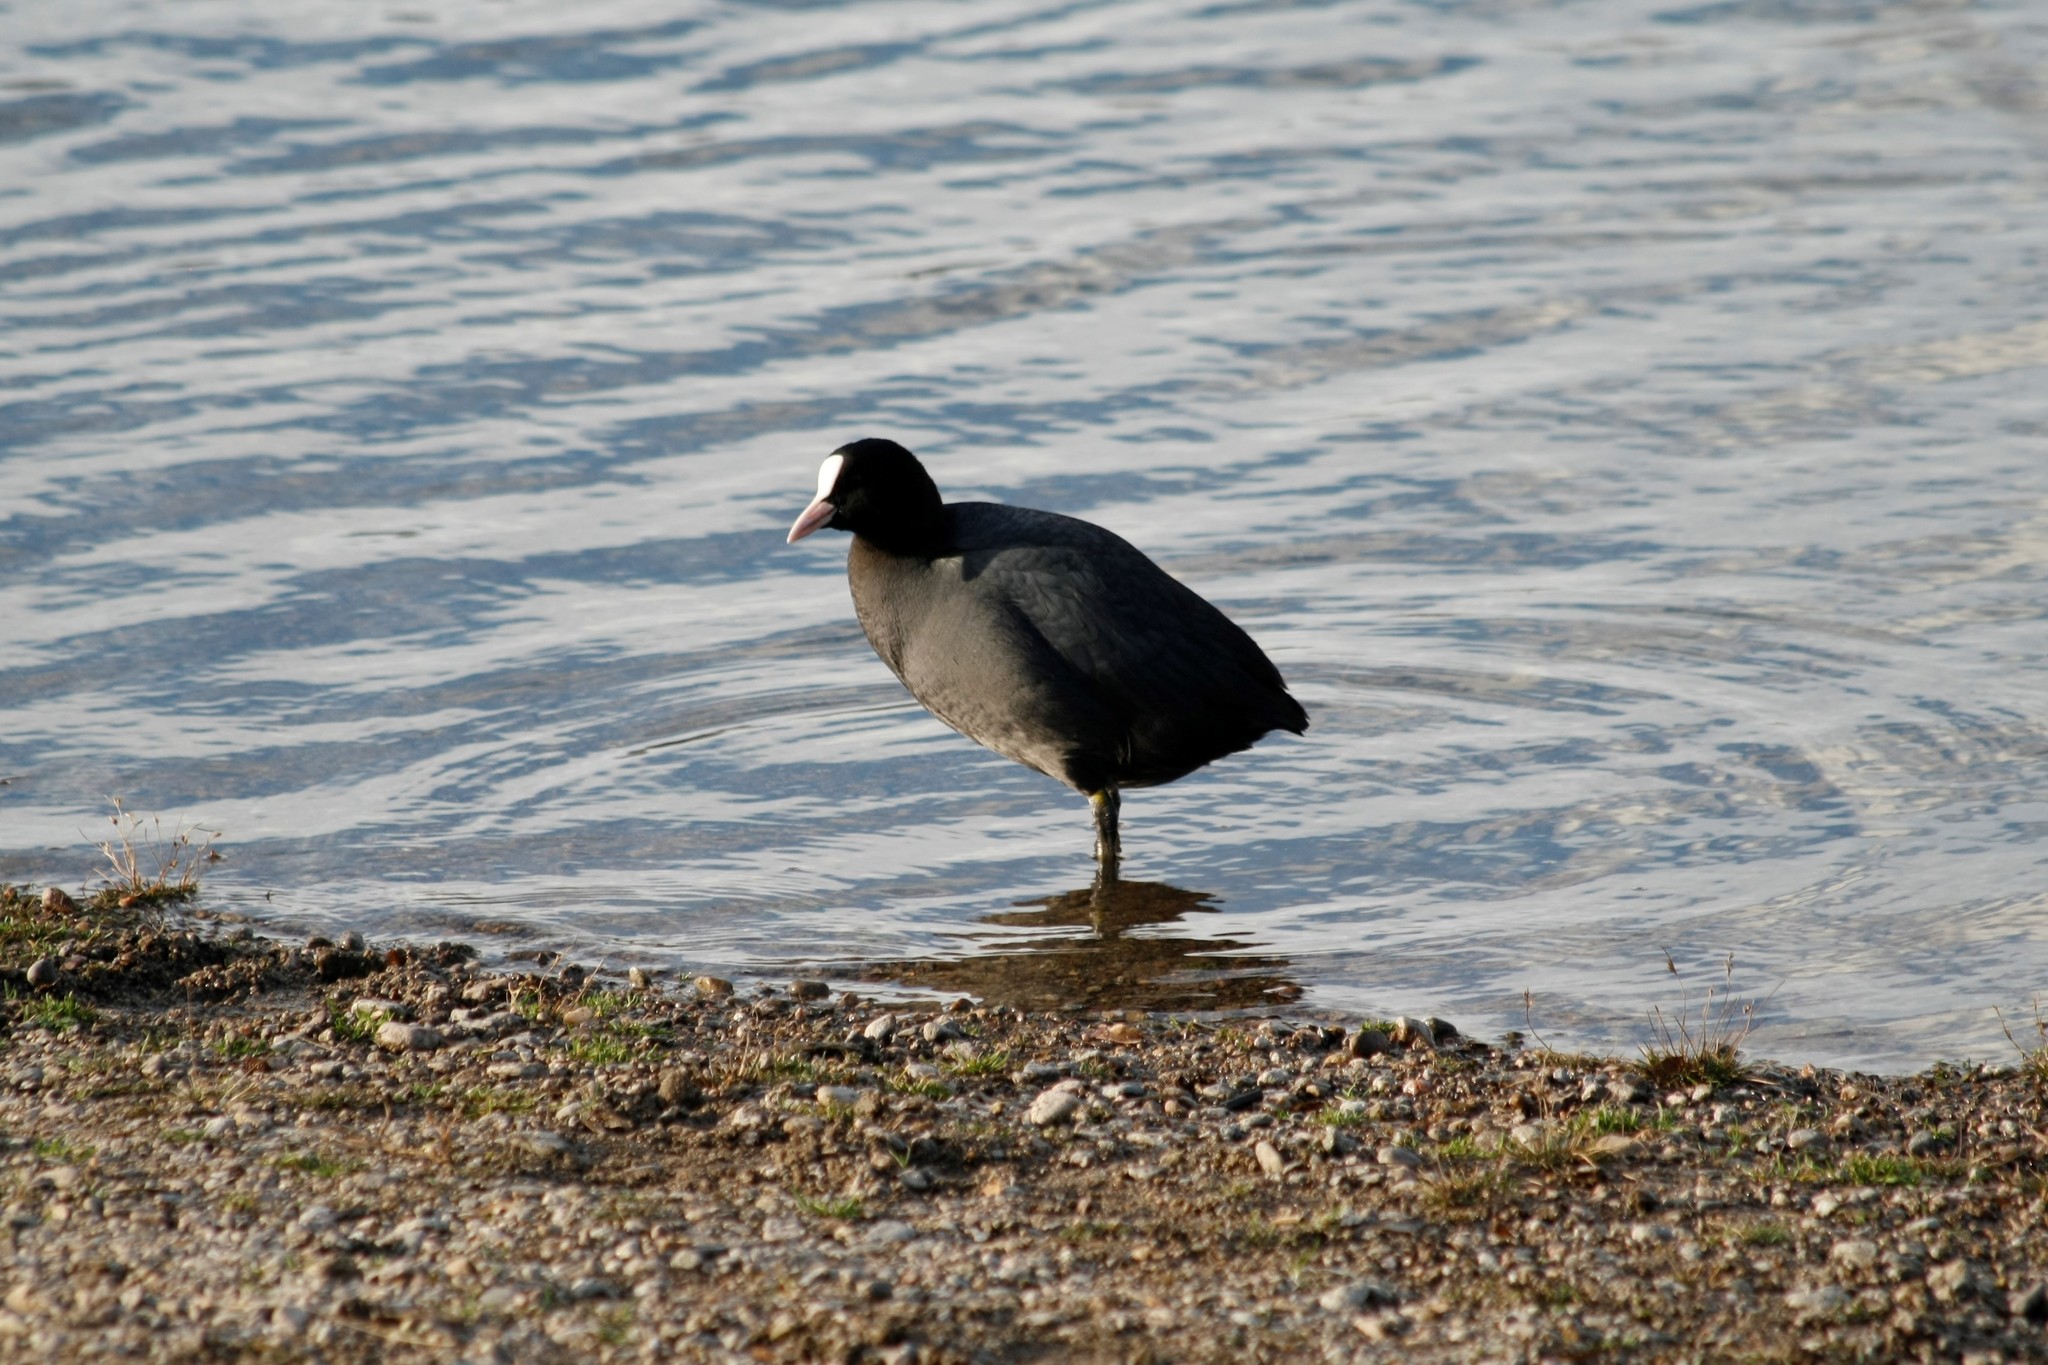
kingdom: Animalia
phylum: Chordata
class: Aves
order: Gruiformes
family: Rallidae
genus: Fulica
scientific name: Fulica atra
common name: Eurasian coot
